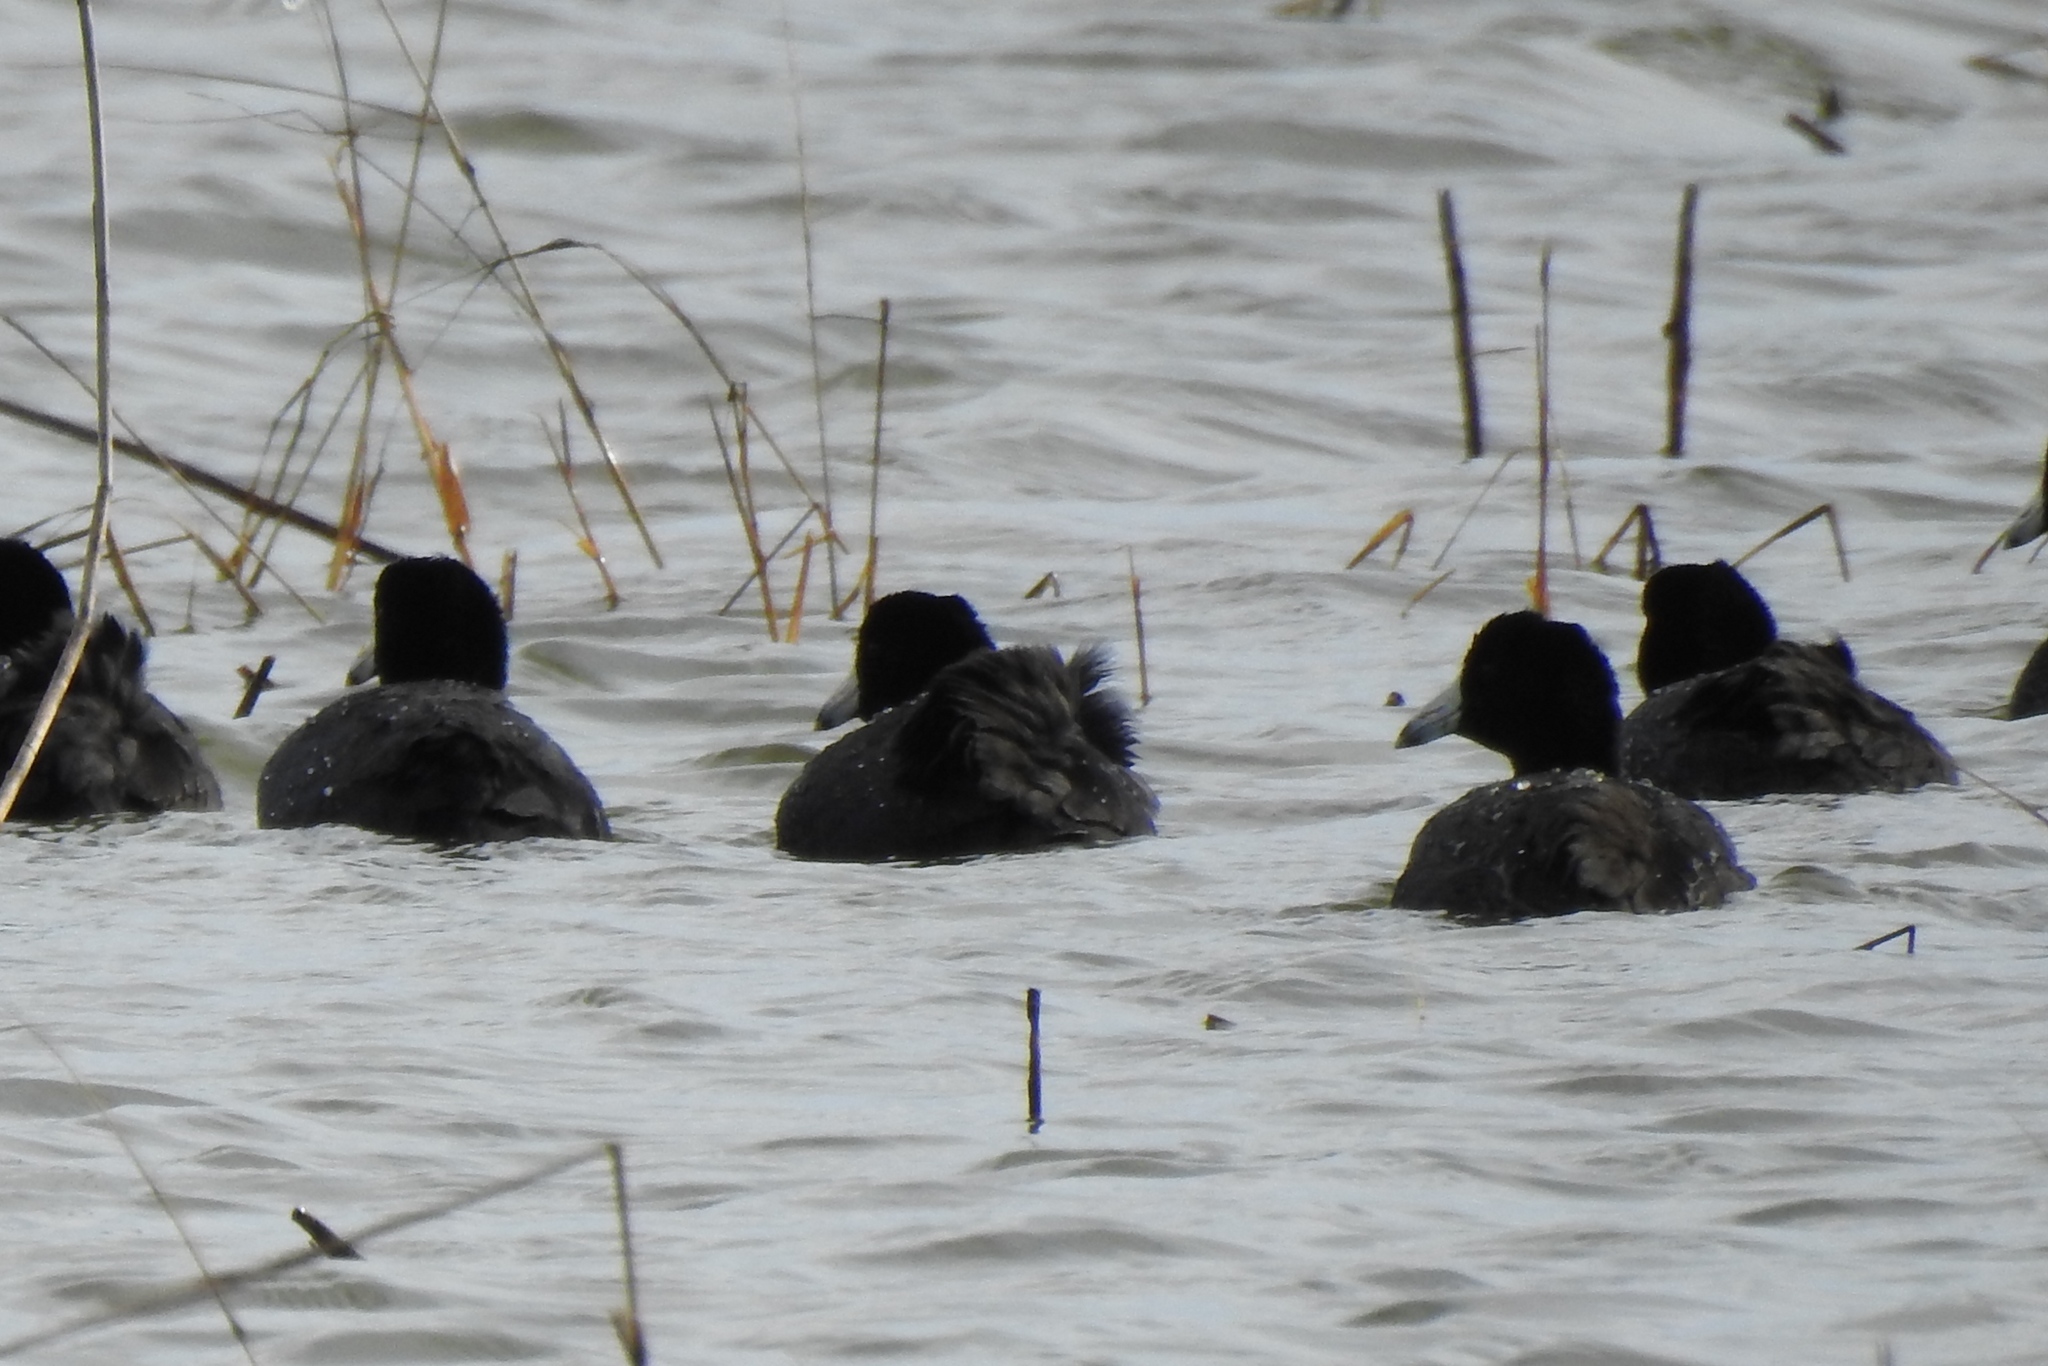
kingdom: Animalia
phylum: Chordata
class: Aves
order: Gruiformes
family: Rallidae
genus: Fulica
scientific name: Fulica americana
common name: American coot
